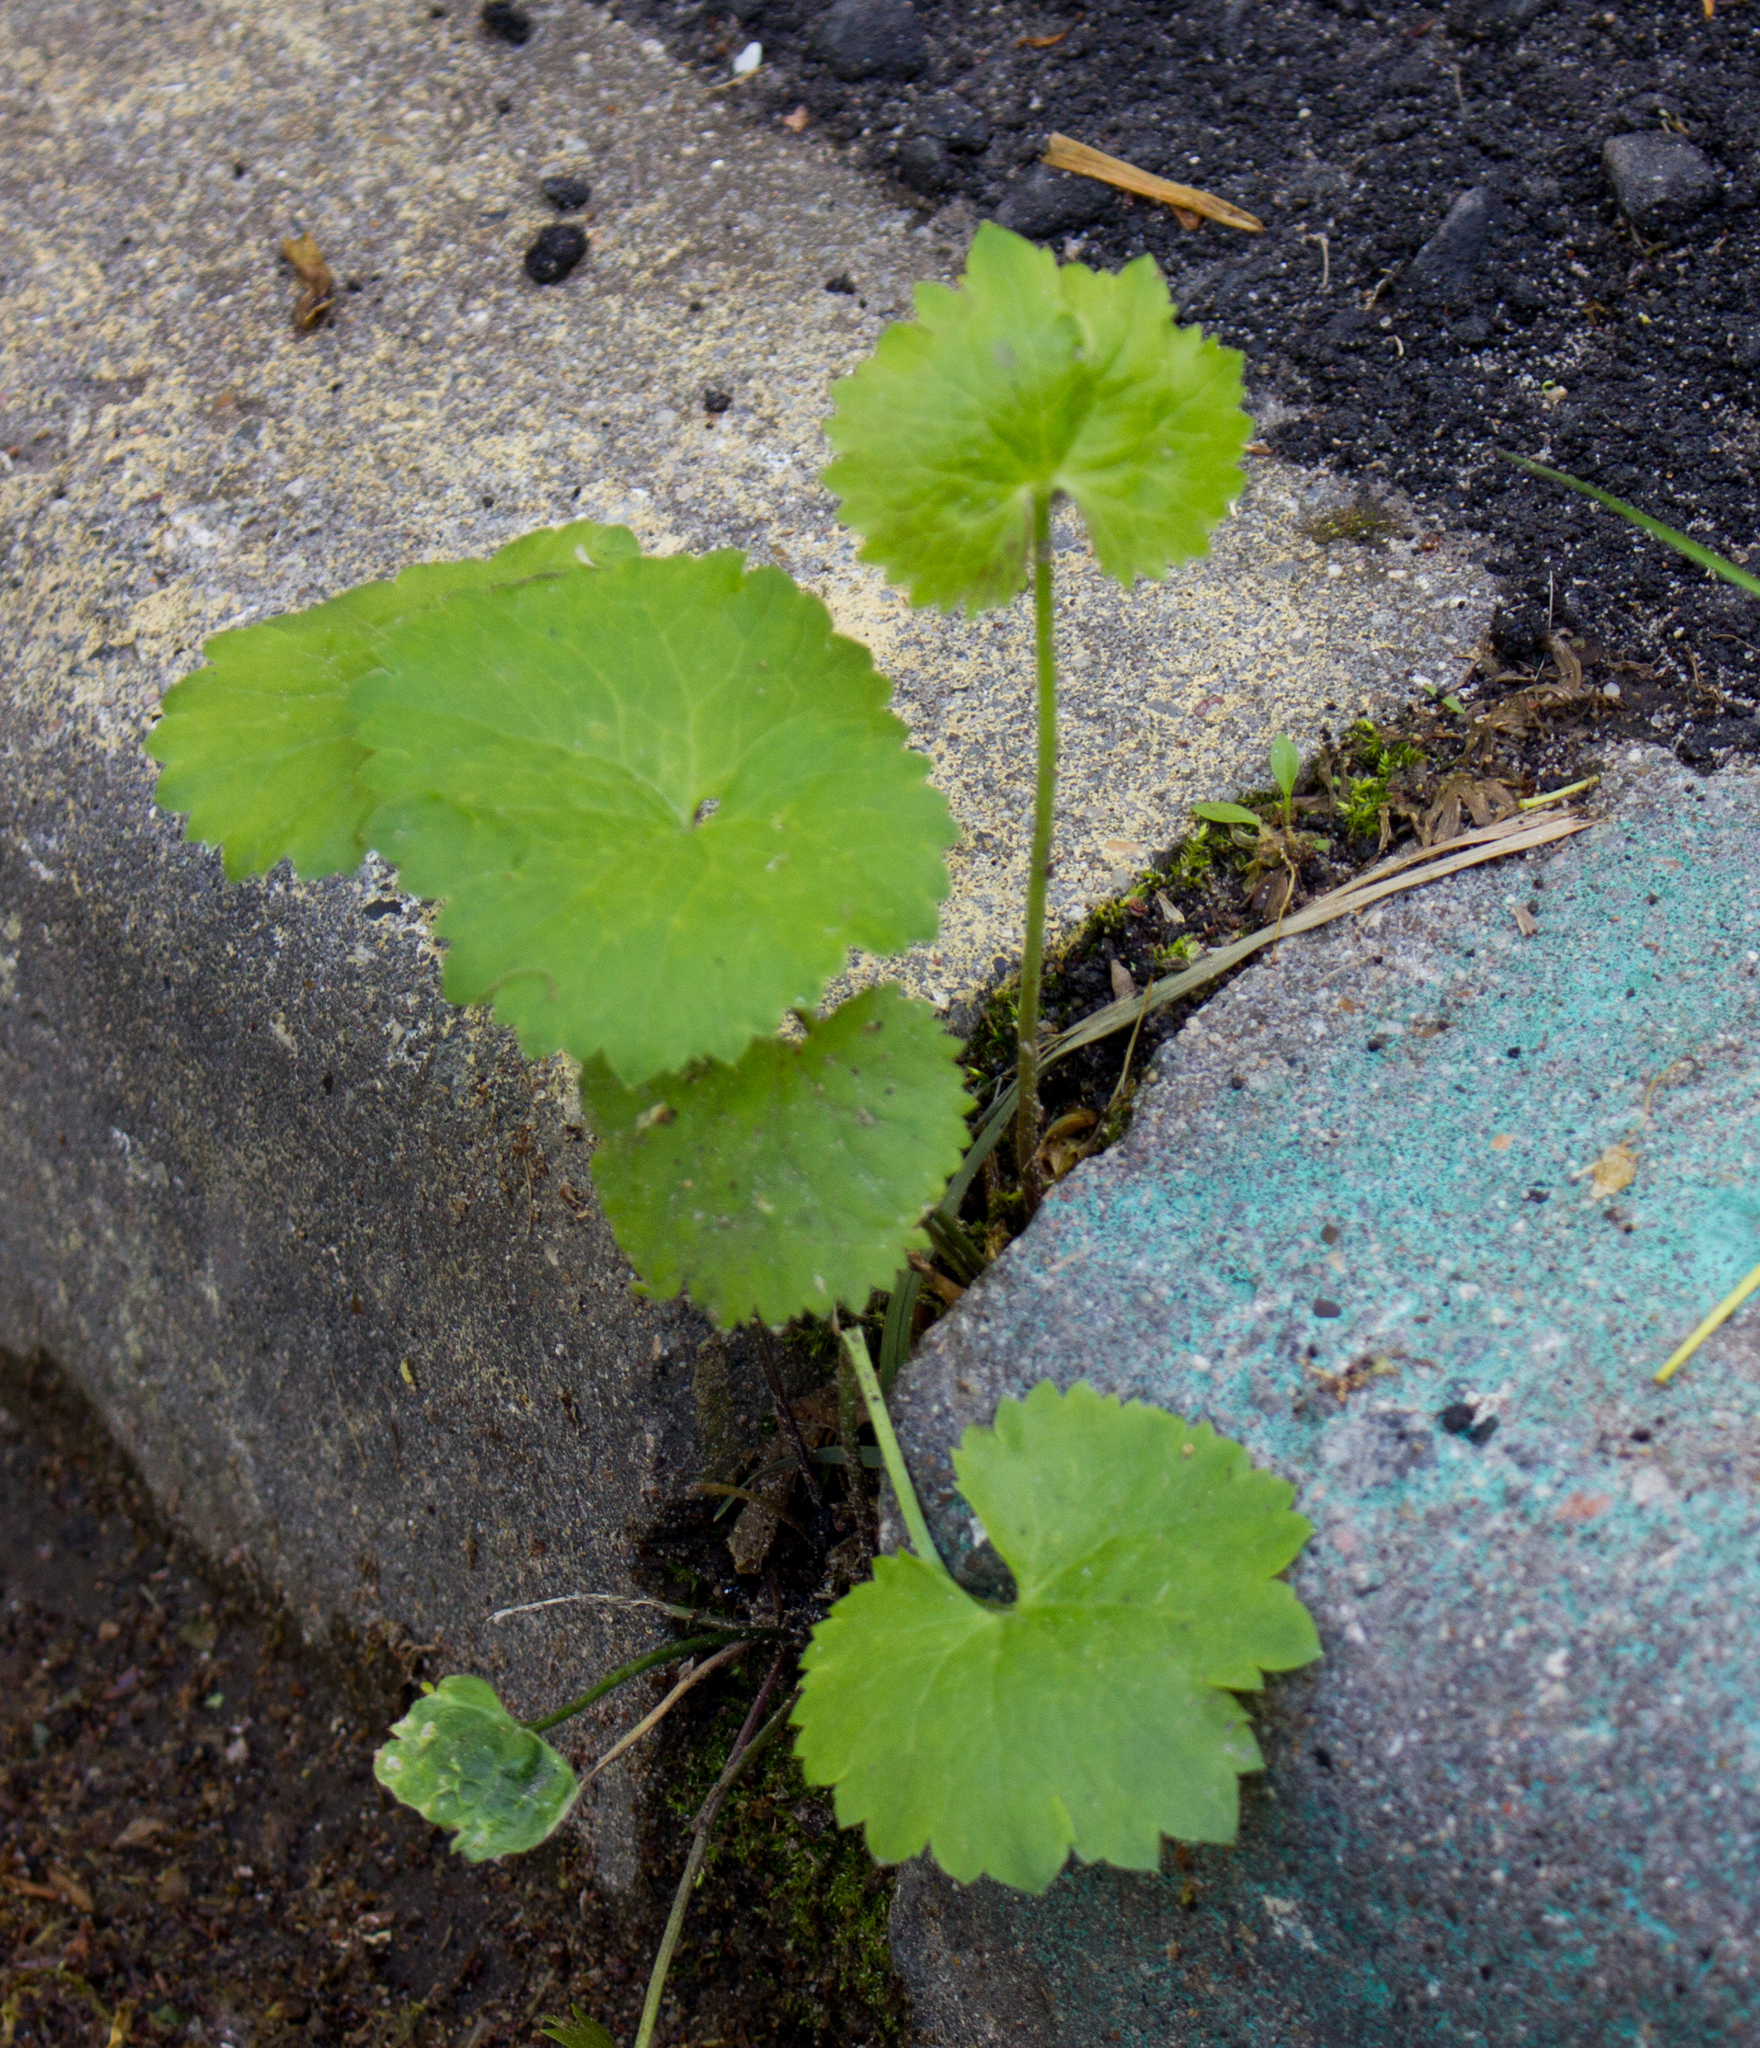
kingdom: Plantae
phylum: Tracheophyta
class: Magnoliopsida
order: Ranunculales
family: Ranunculaceae
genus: Ranunculus
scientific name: Ranunculus cassubicus
